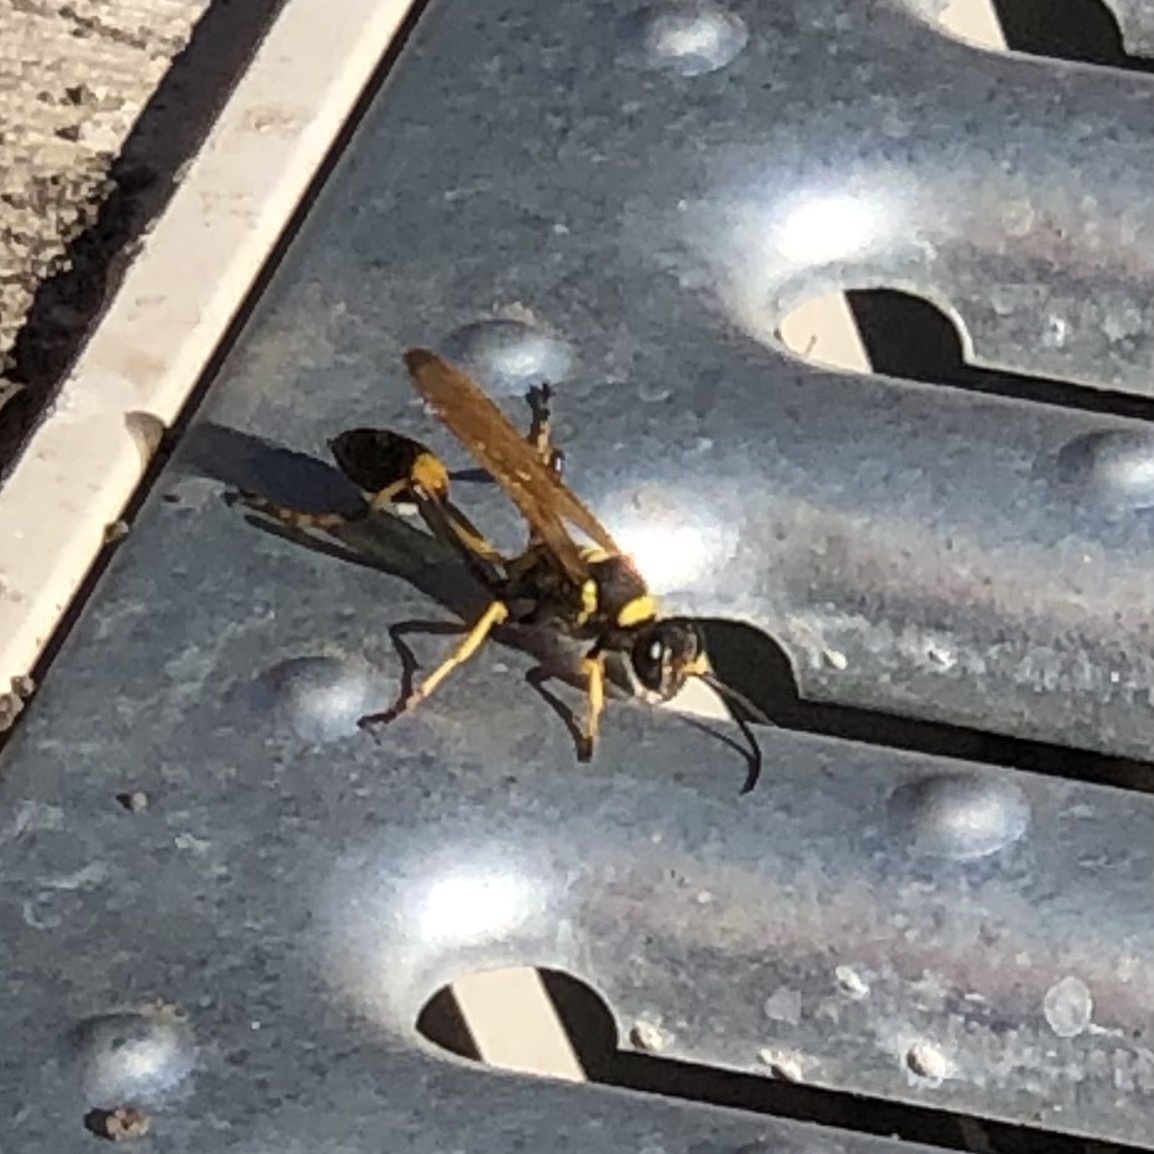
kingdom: Animalia
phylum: Arthropoda
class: Insecta
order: Hymenoptera
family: Sphecidae
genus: Sceliphron
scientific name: Sceliphron caementarium
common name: Mud dauber
